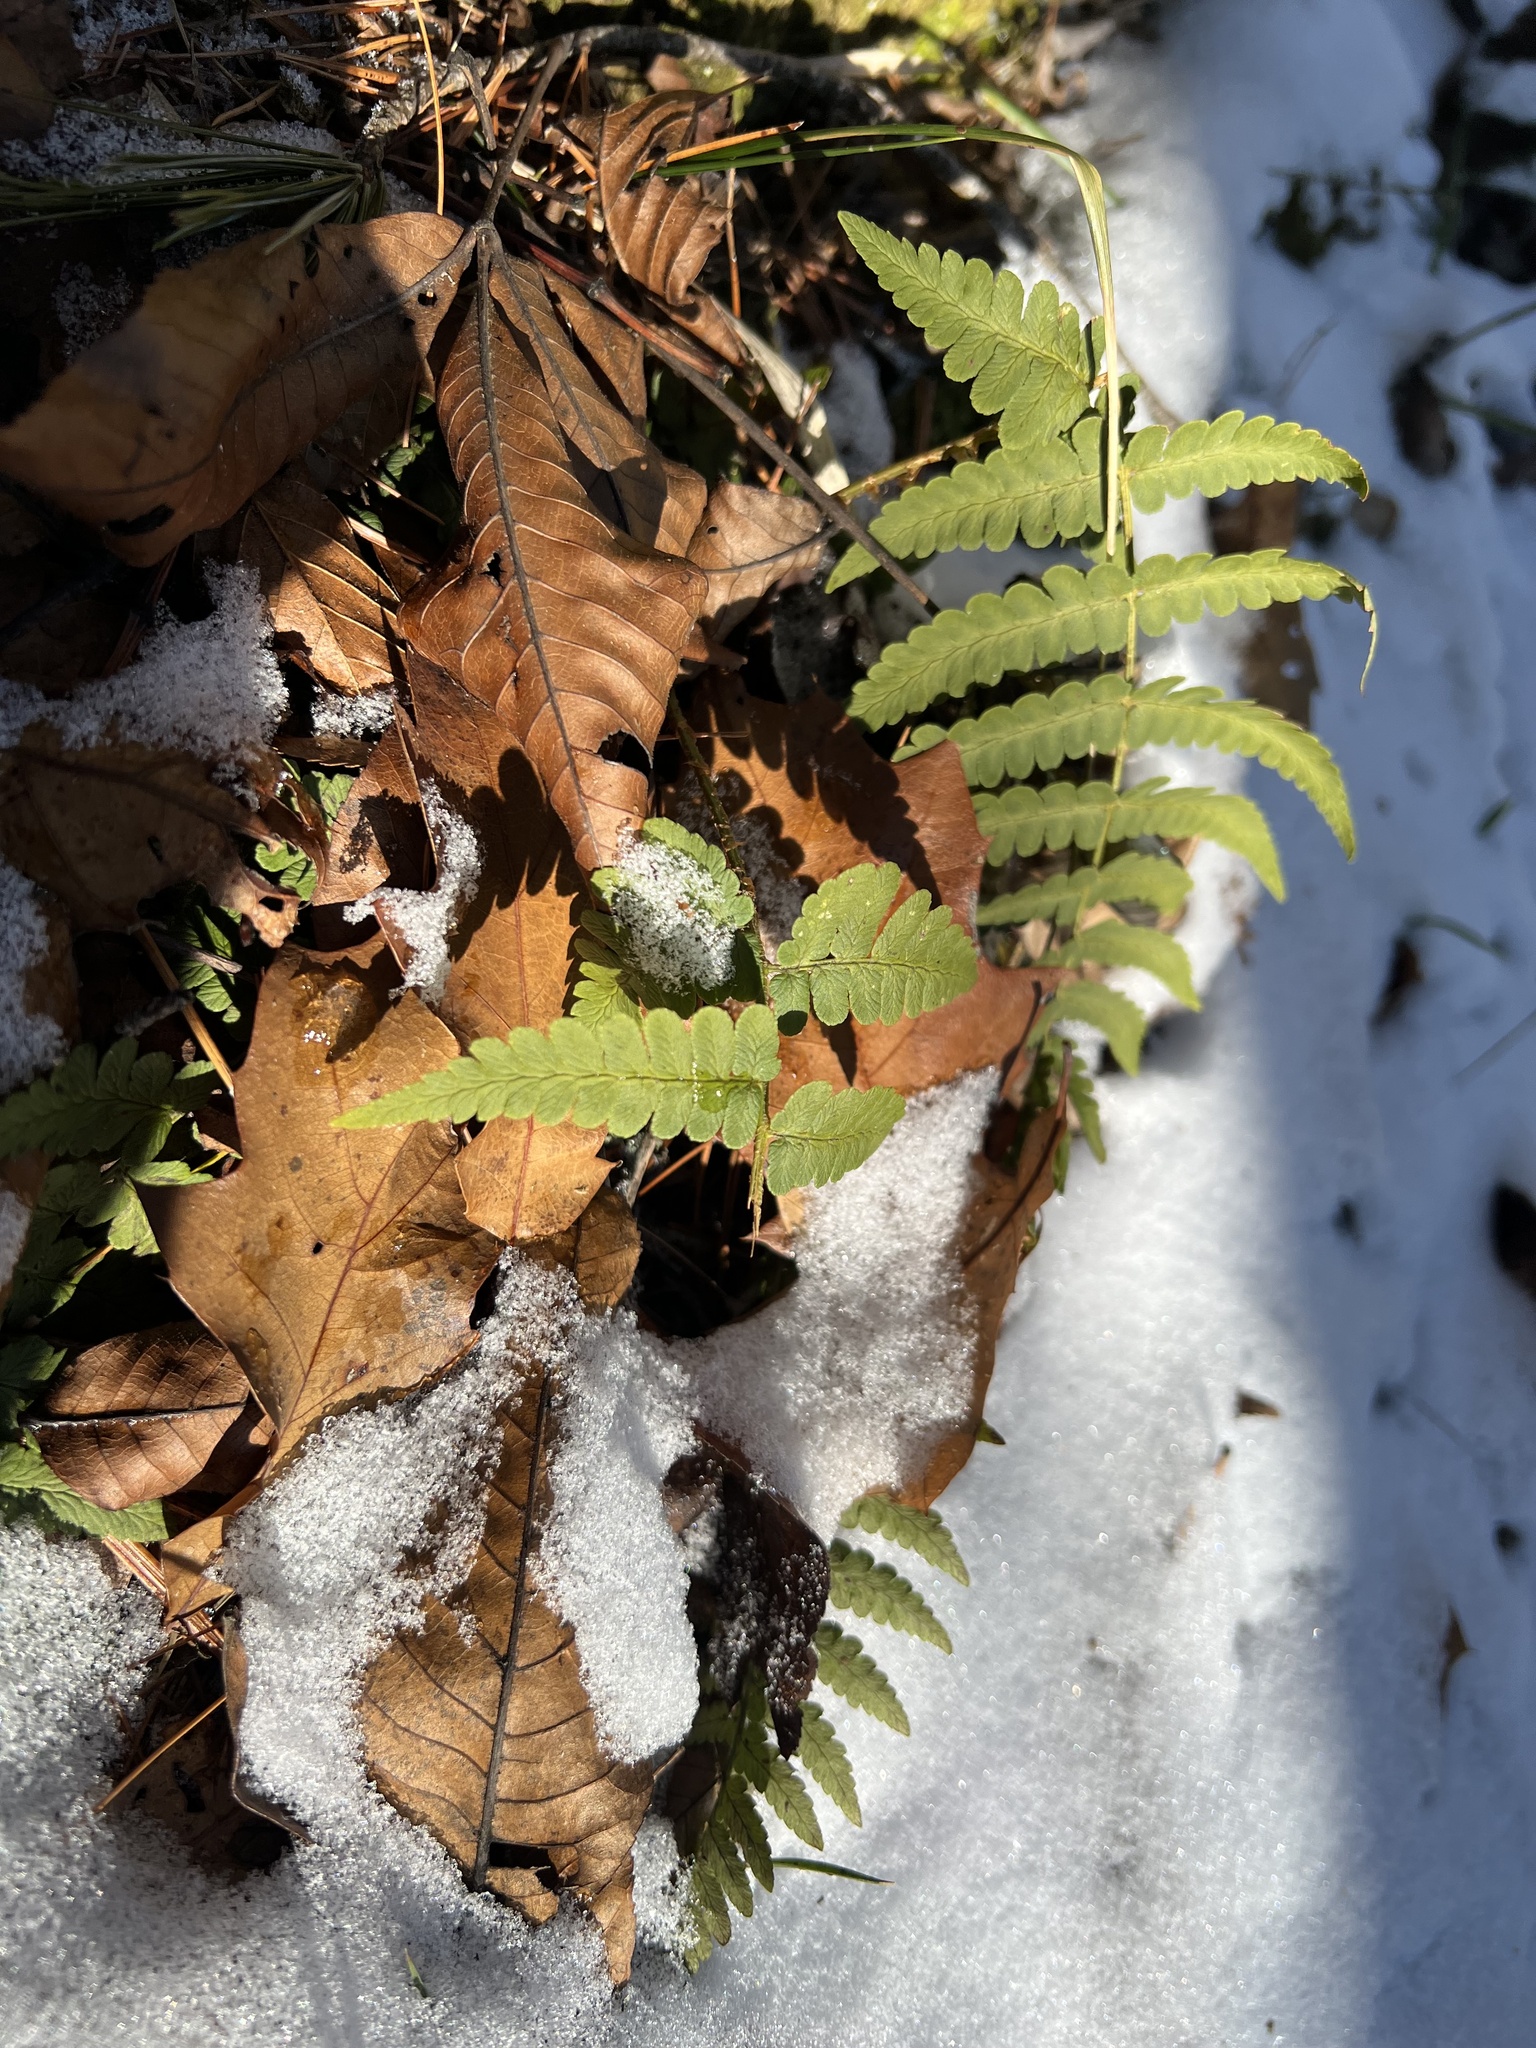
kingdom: Plantae
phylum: Tracheophyta
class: Polypodiopsida
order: Polypodiales
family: Dryopteridaceae
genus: Dryopteris
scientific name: Dryopteris marginalis
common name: Marginal wood fern
